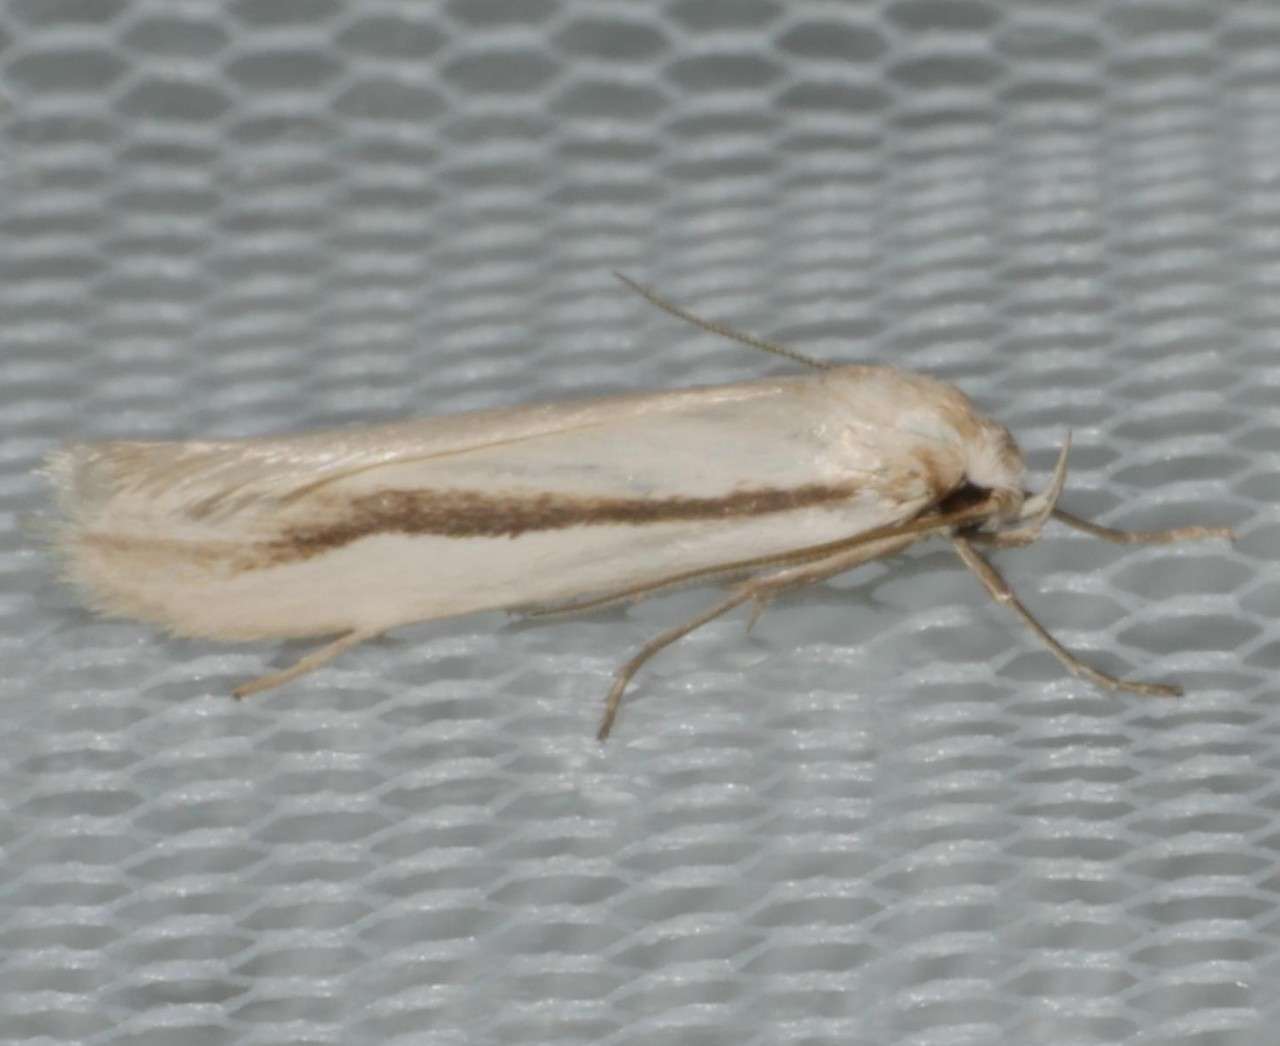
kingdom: Animalia
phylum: Arthropoda
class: Insecta
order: Lepidoptera
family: Oecophoridae
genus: Philobota
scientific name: Philobota physaula
